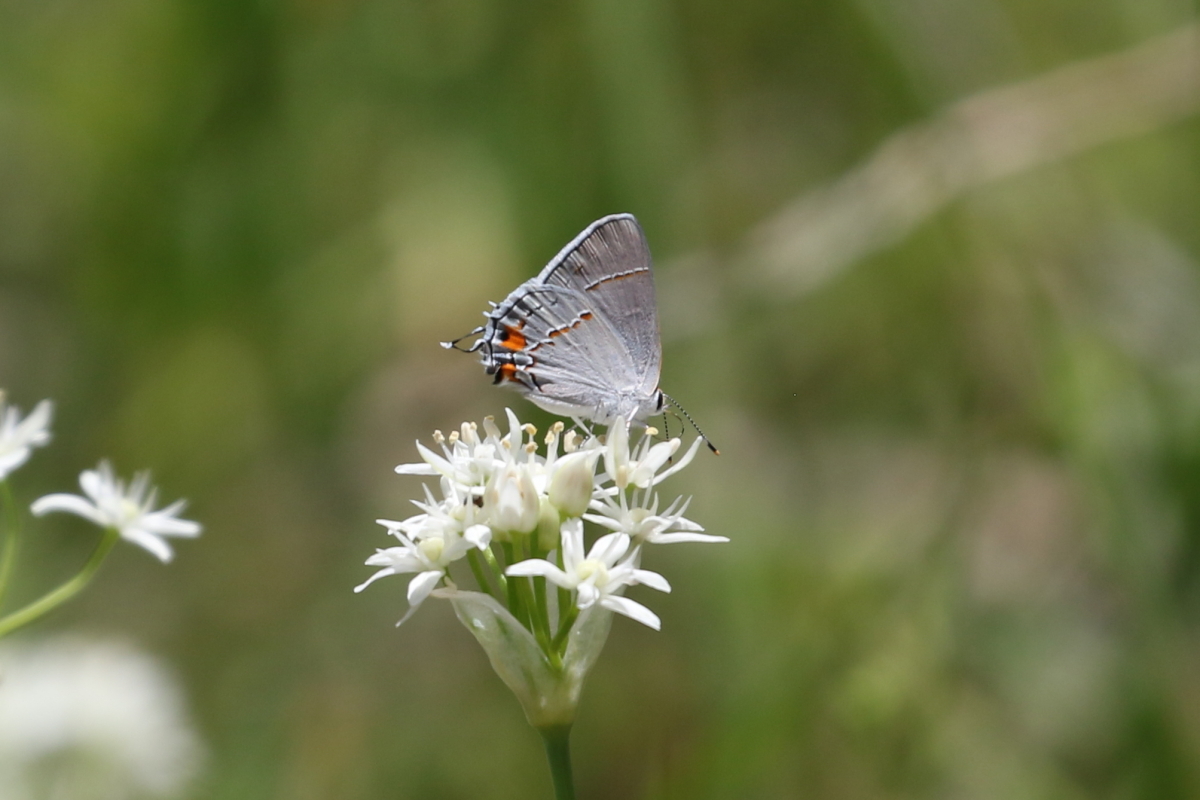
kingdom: Animalia
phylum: Arthropoda
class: Insecta
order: Lepidoptera
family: Lycaenidae
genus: Strymon
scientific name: Strymon melinus
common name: Gray hairstreak
